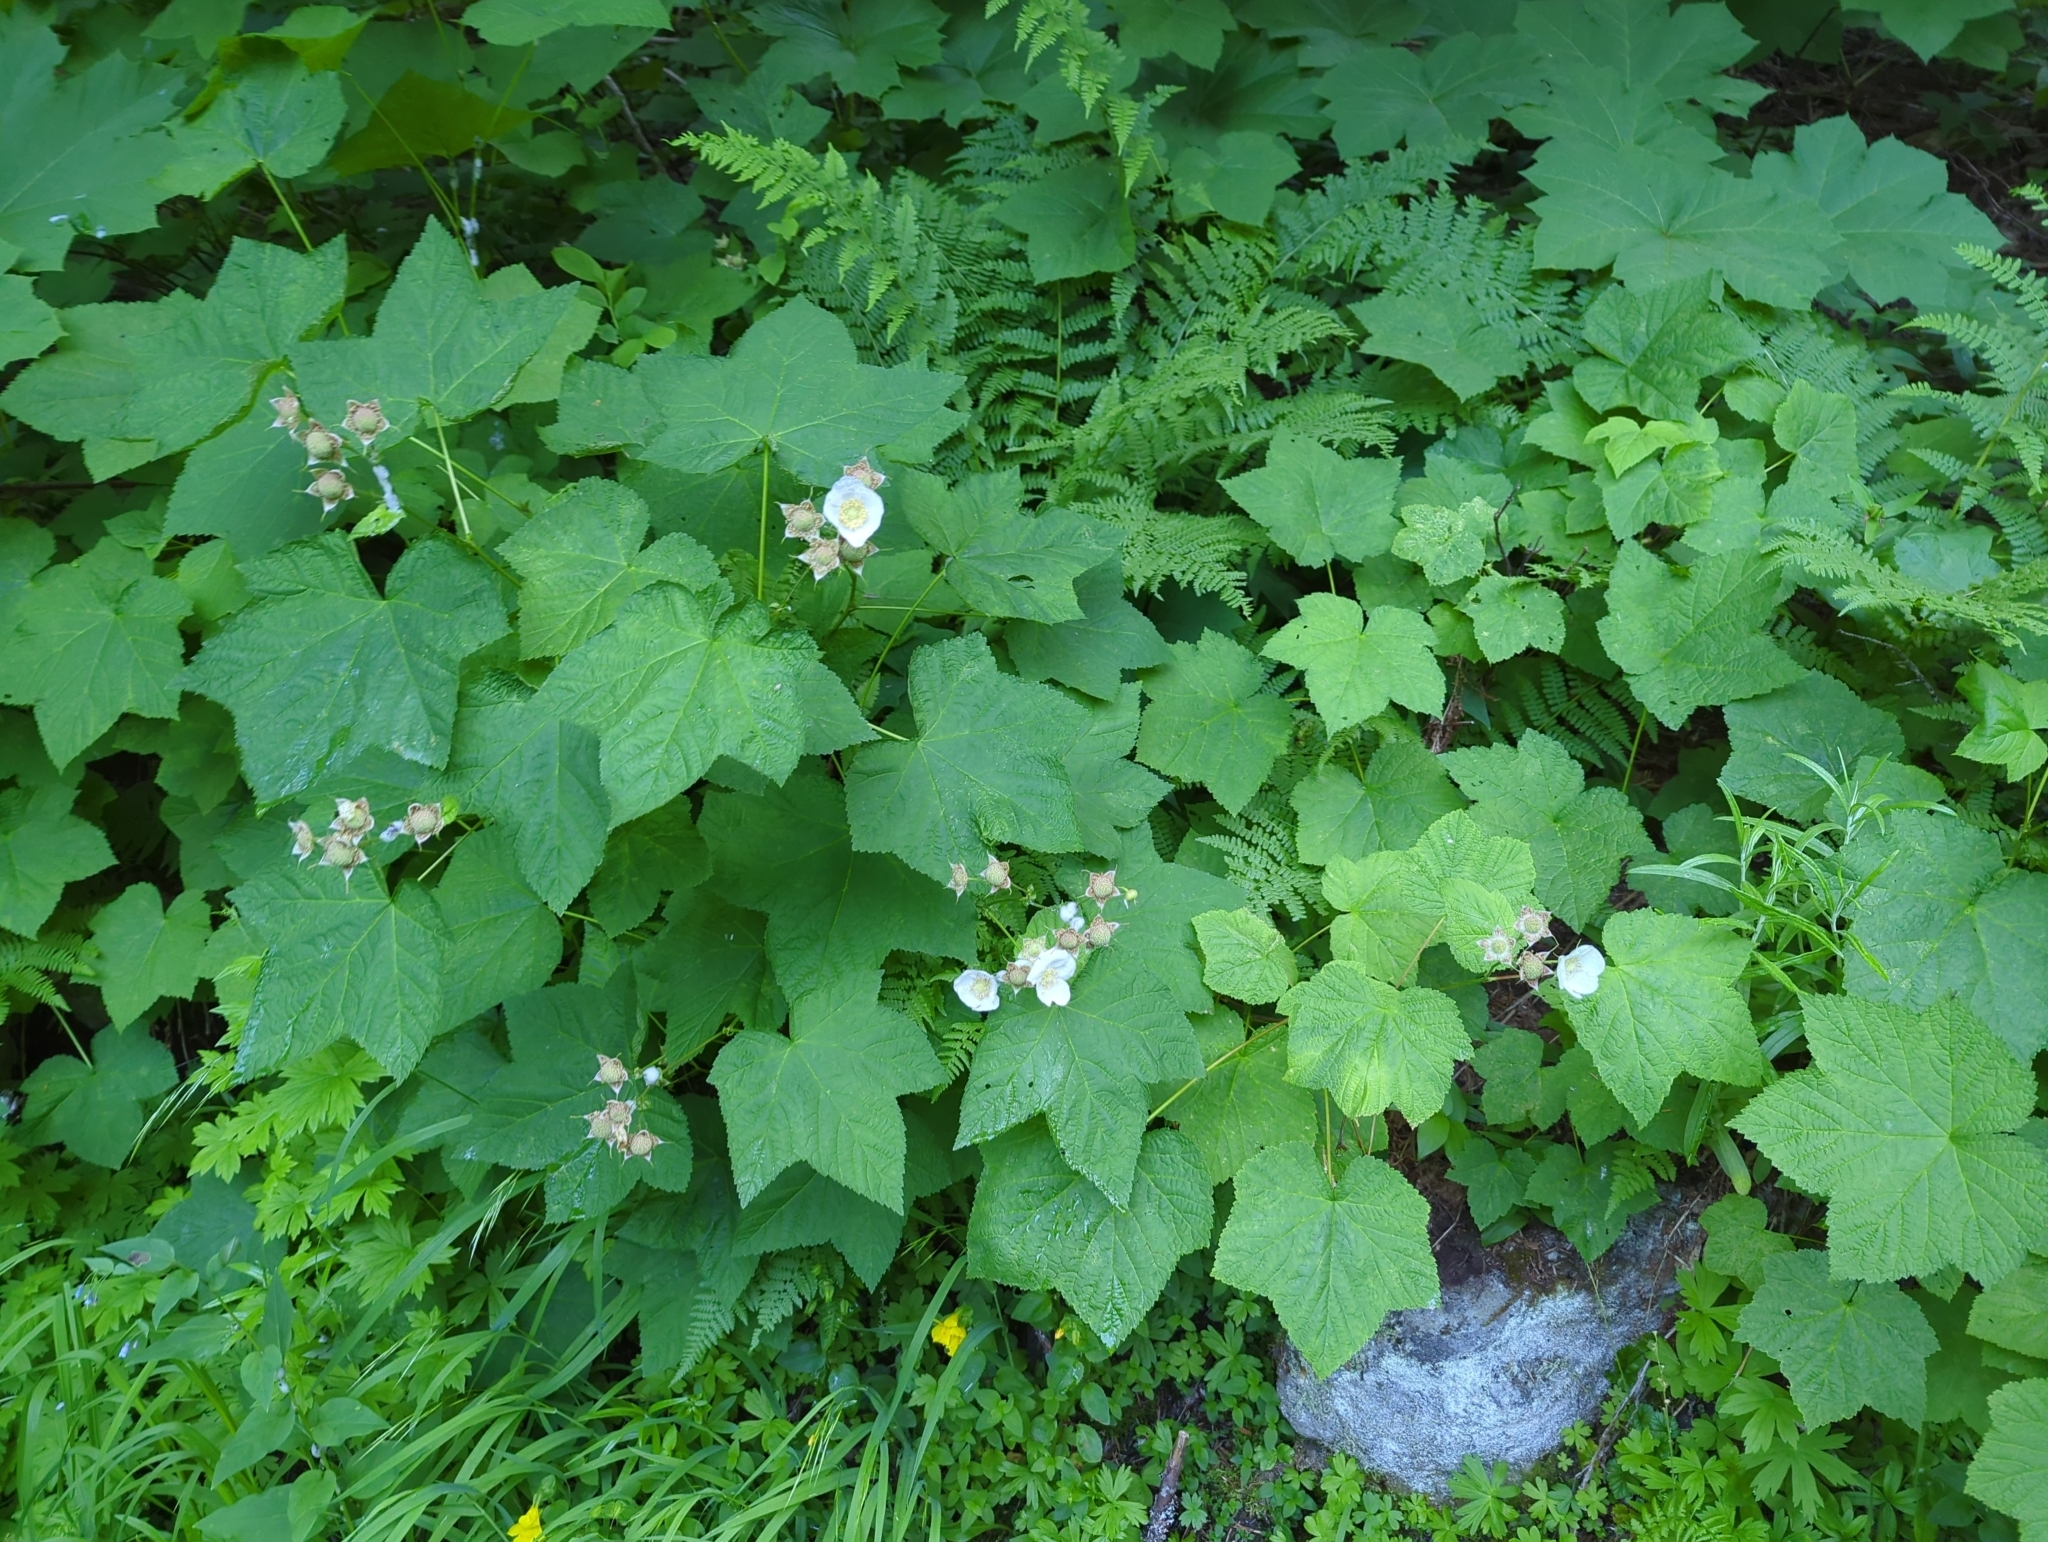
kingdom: Plantae
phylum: Tracheophyta
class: Magnoliopsida
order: Rosales
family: Rosaceae
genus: Rubus
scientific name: Rubus parviflorus
